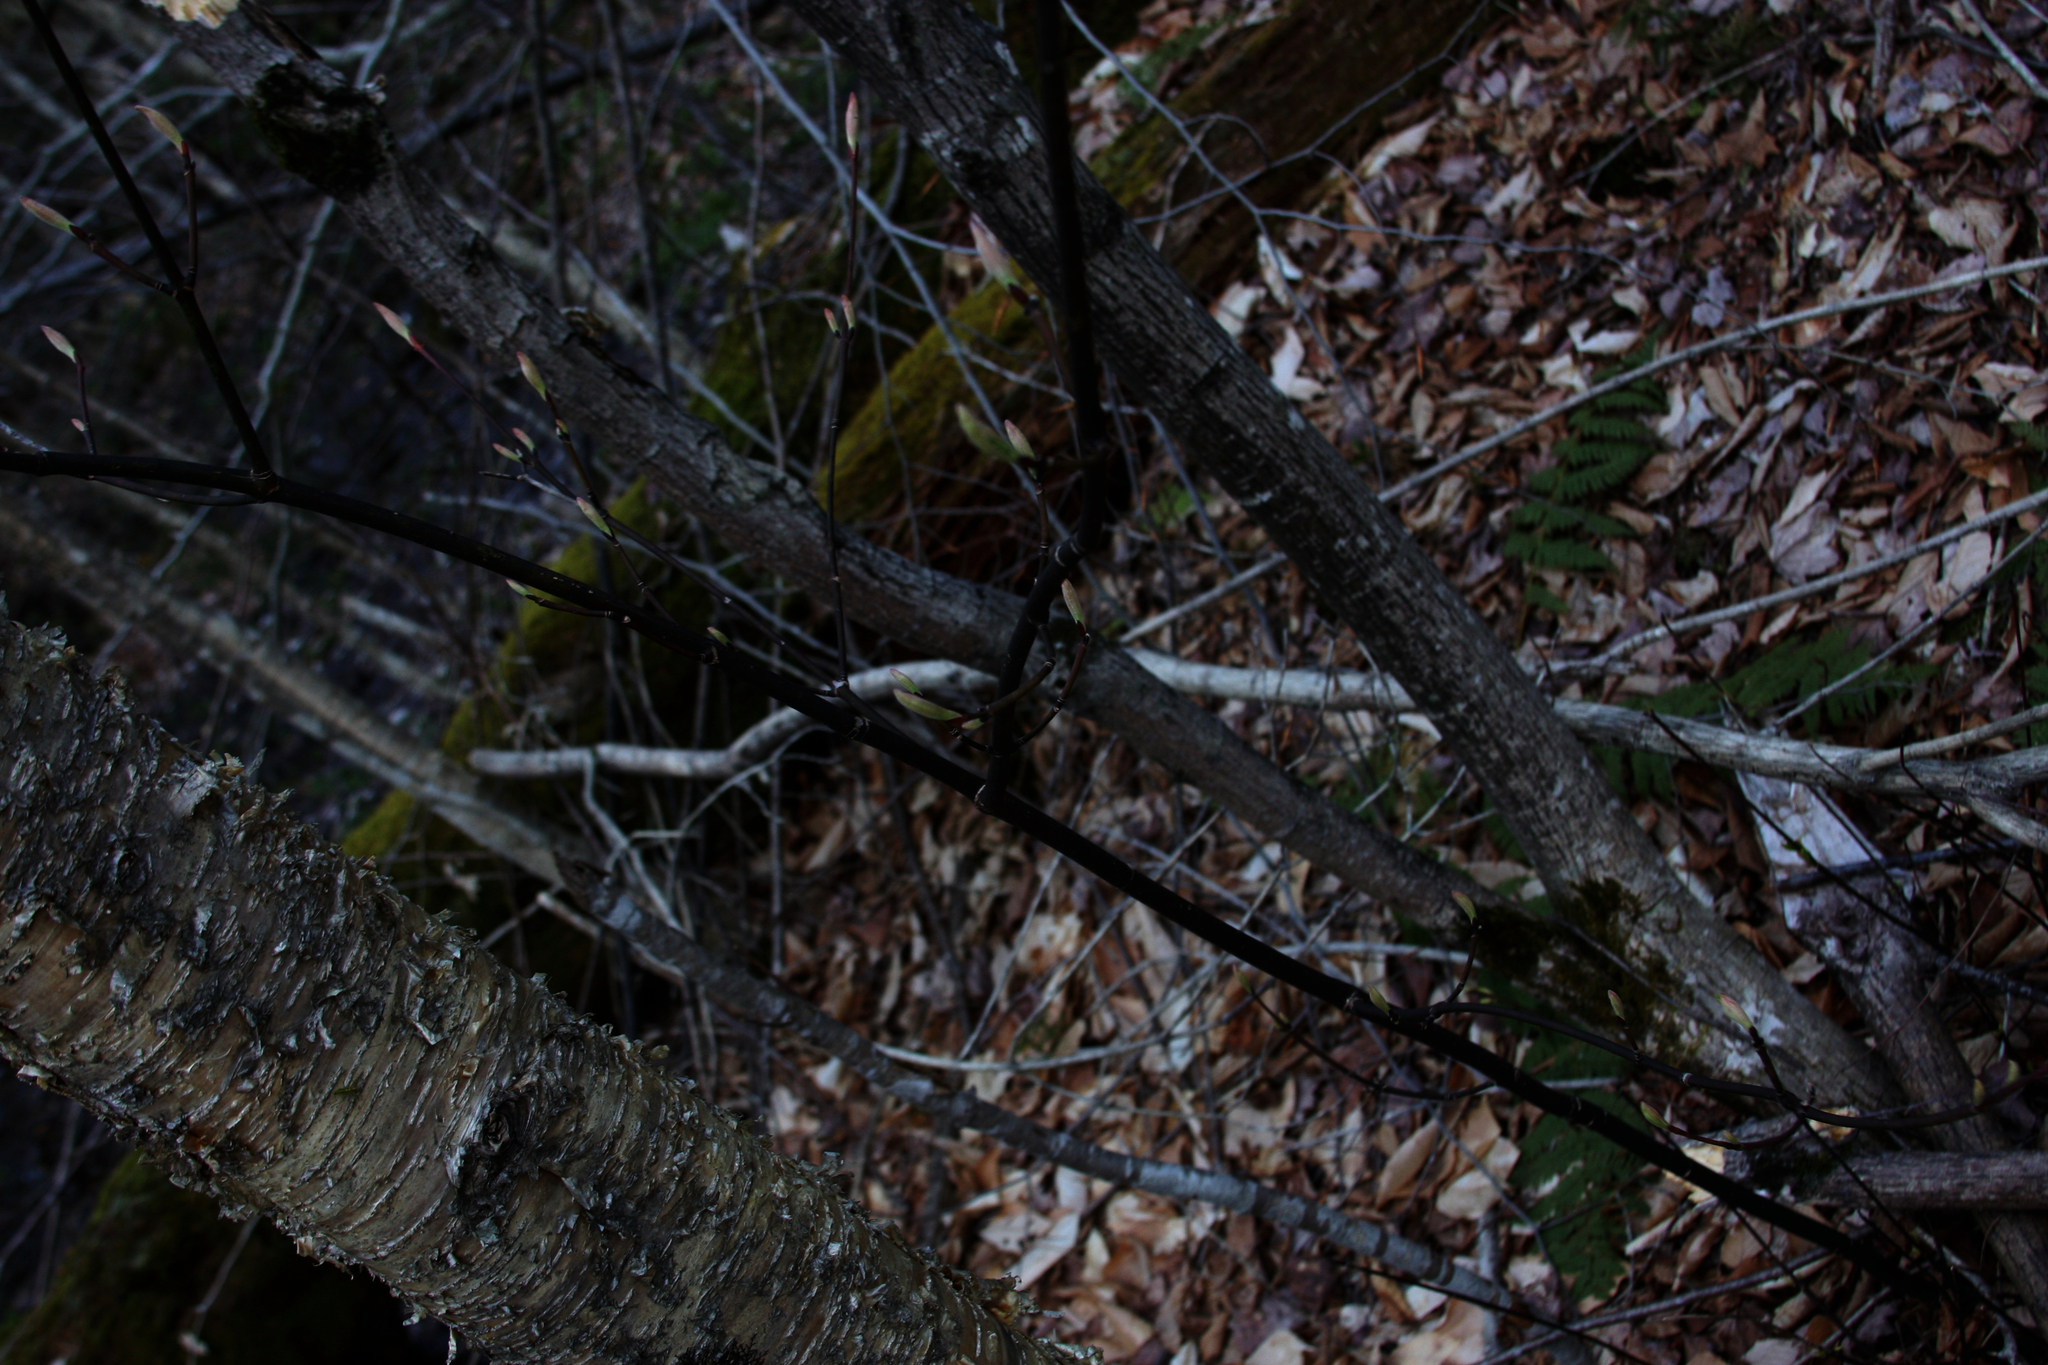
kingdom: Plantae
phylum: Tracheophyta
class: Magnoliopsida
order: Sapindales
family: Sapindaceae
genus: Acer
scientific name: Acer pensylvanicum
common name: Moosewood
